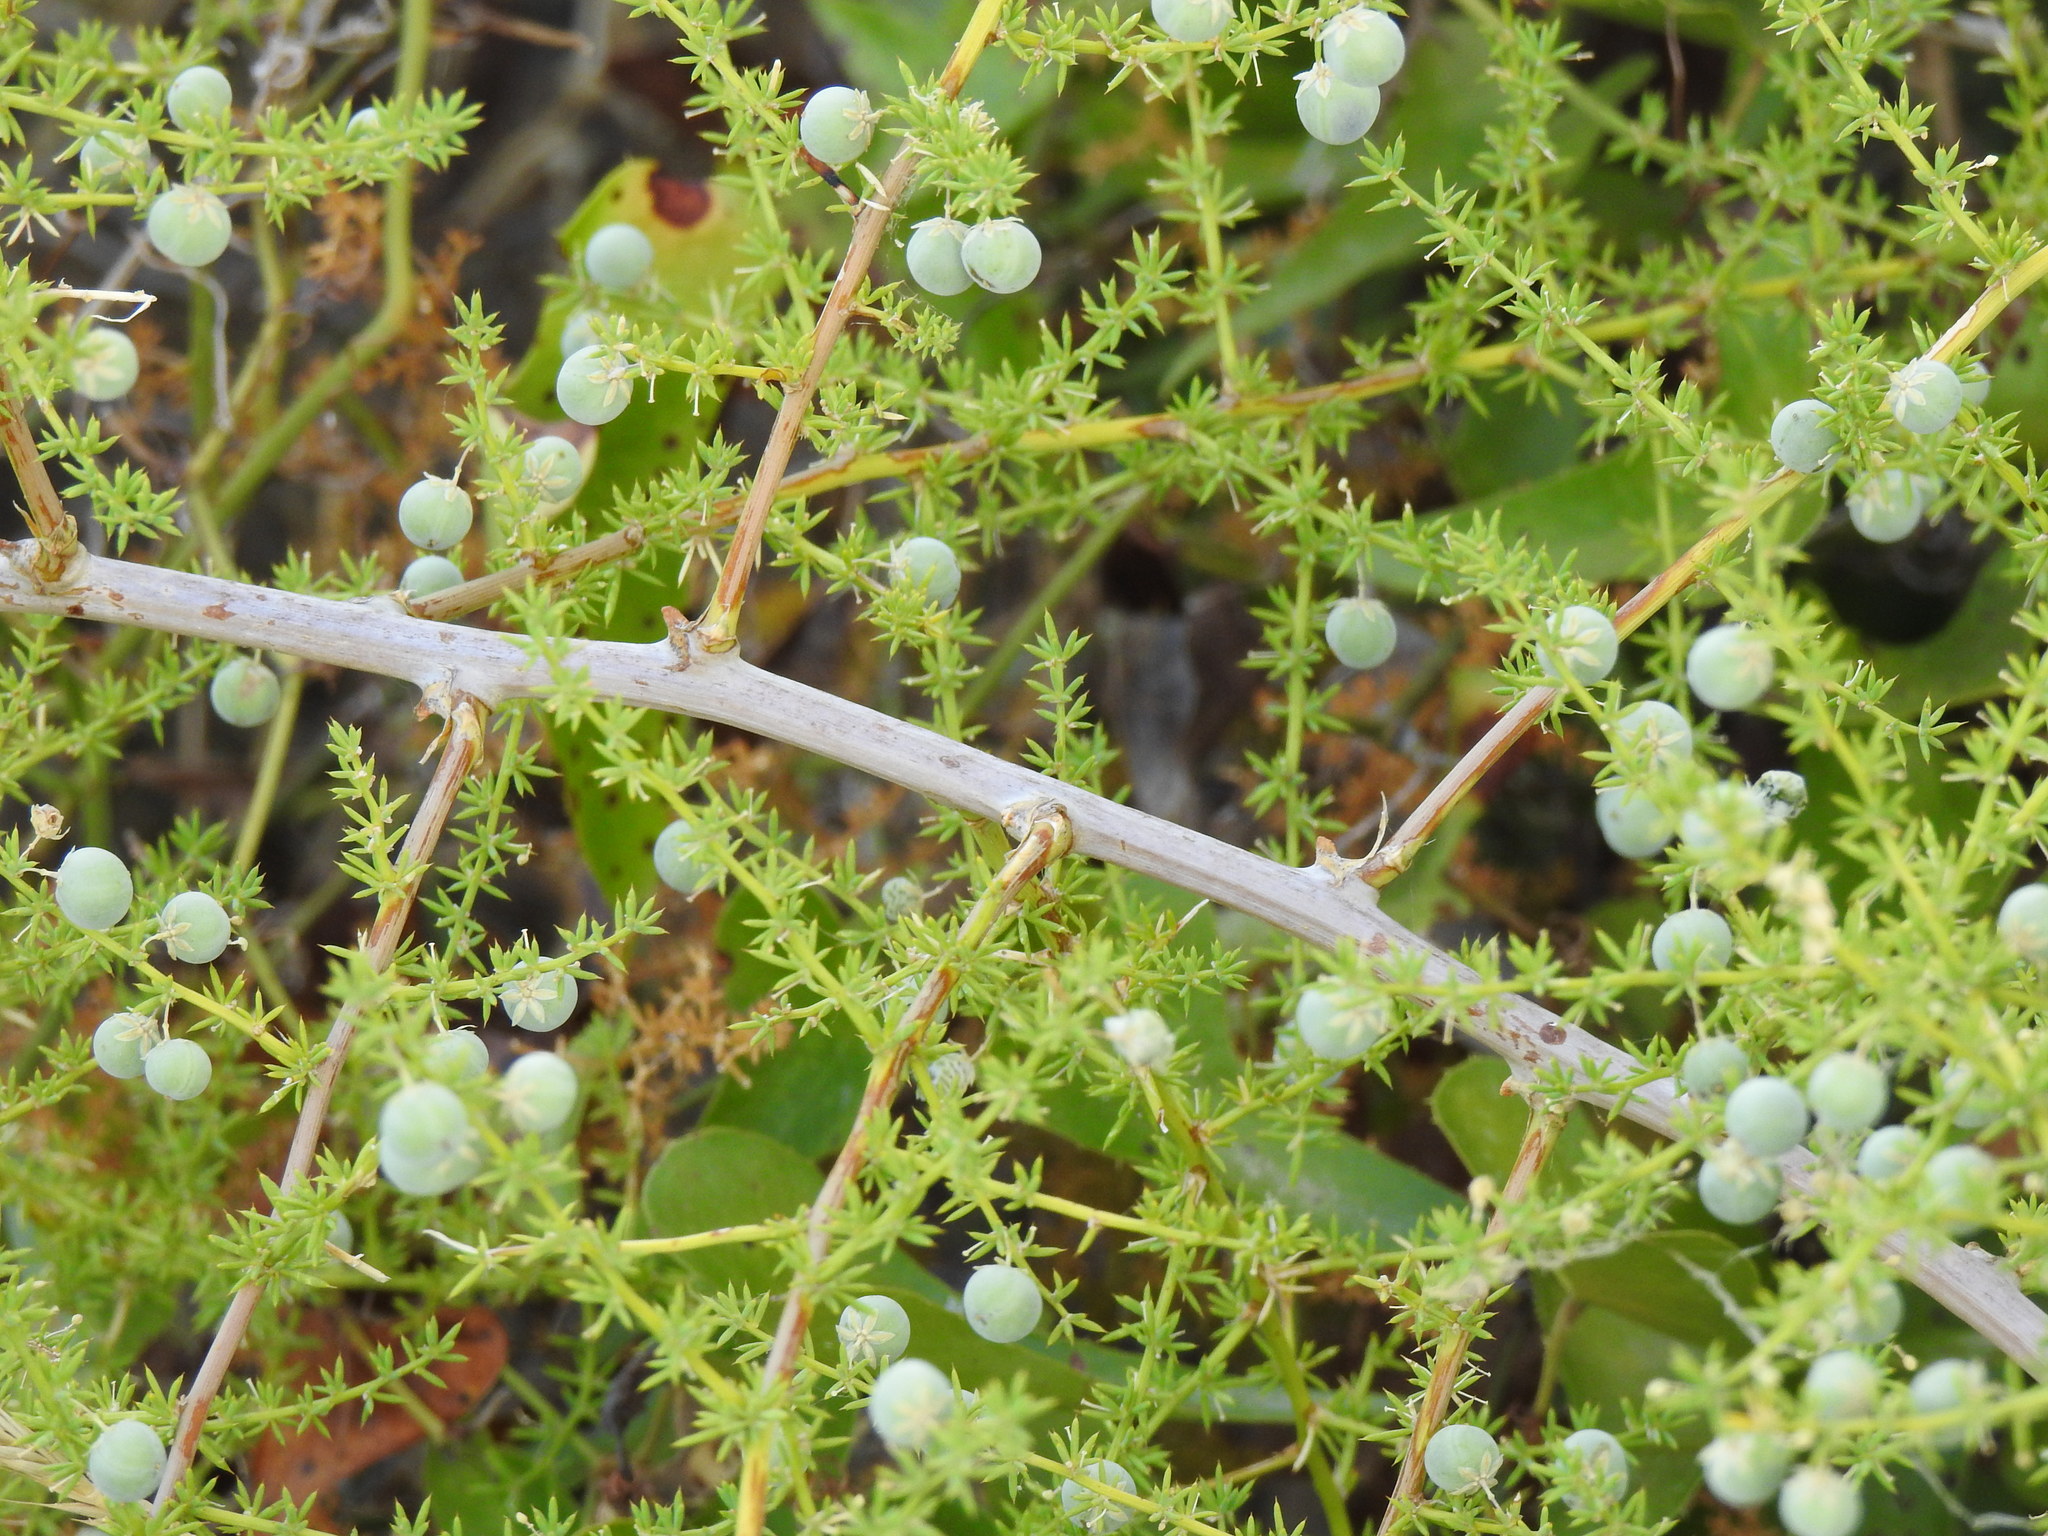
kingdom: Plantae
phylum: Tracheophyta
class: Liliopsida
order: Asparagales
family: Asparagaceae
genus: Asparagus
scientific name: Asparagus acutifolius
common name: Wild asparagus
